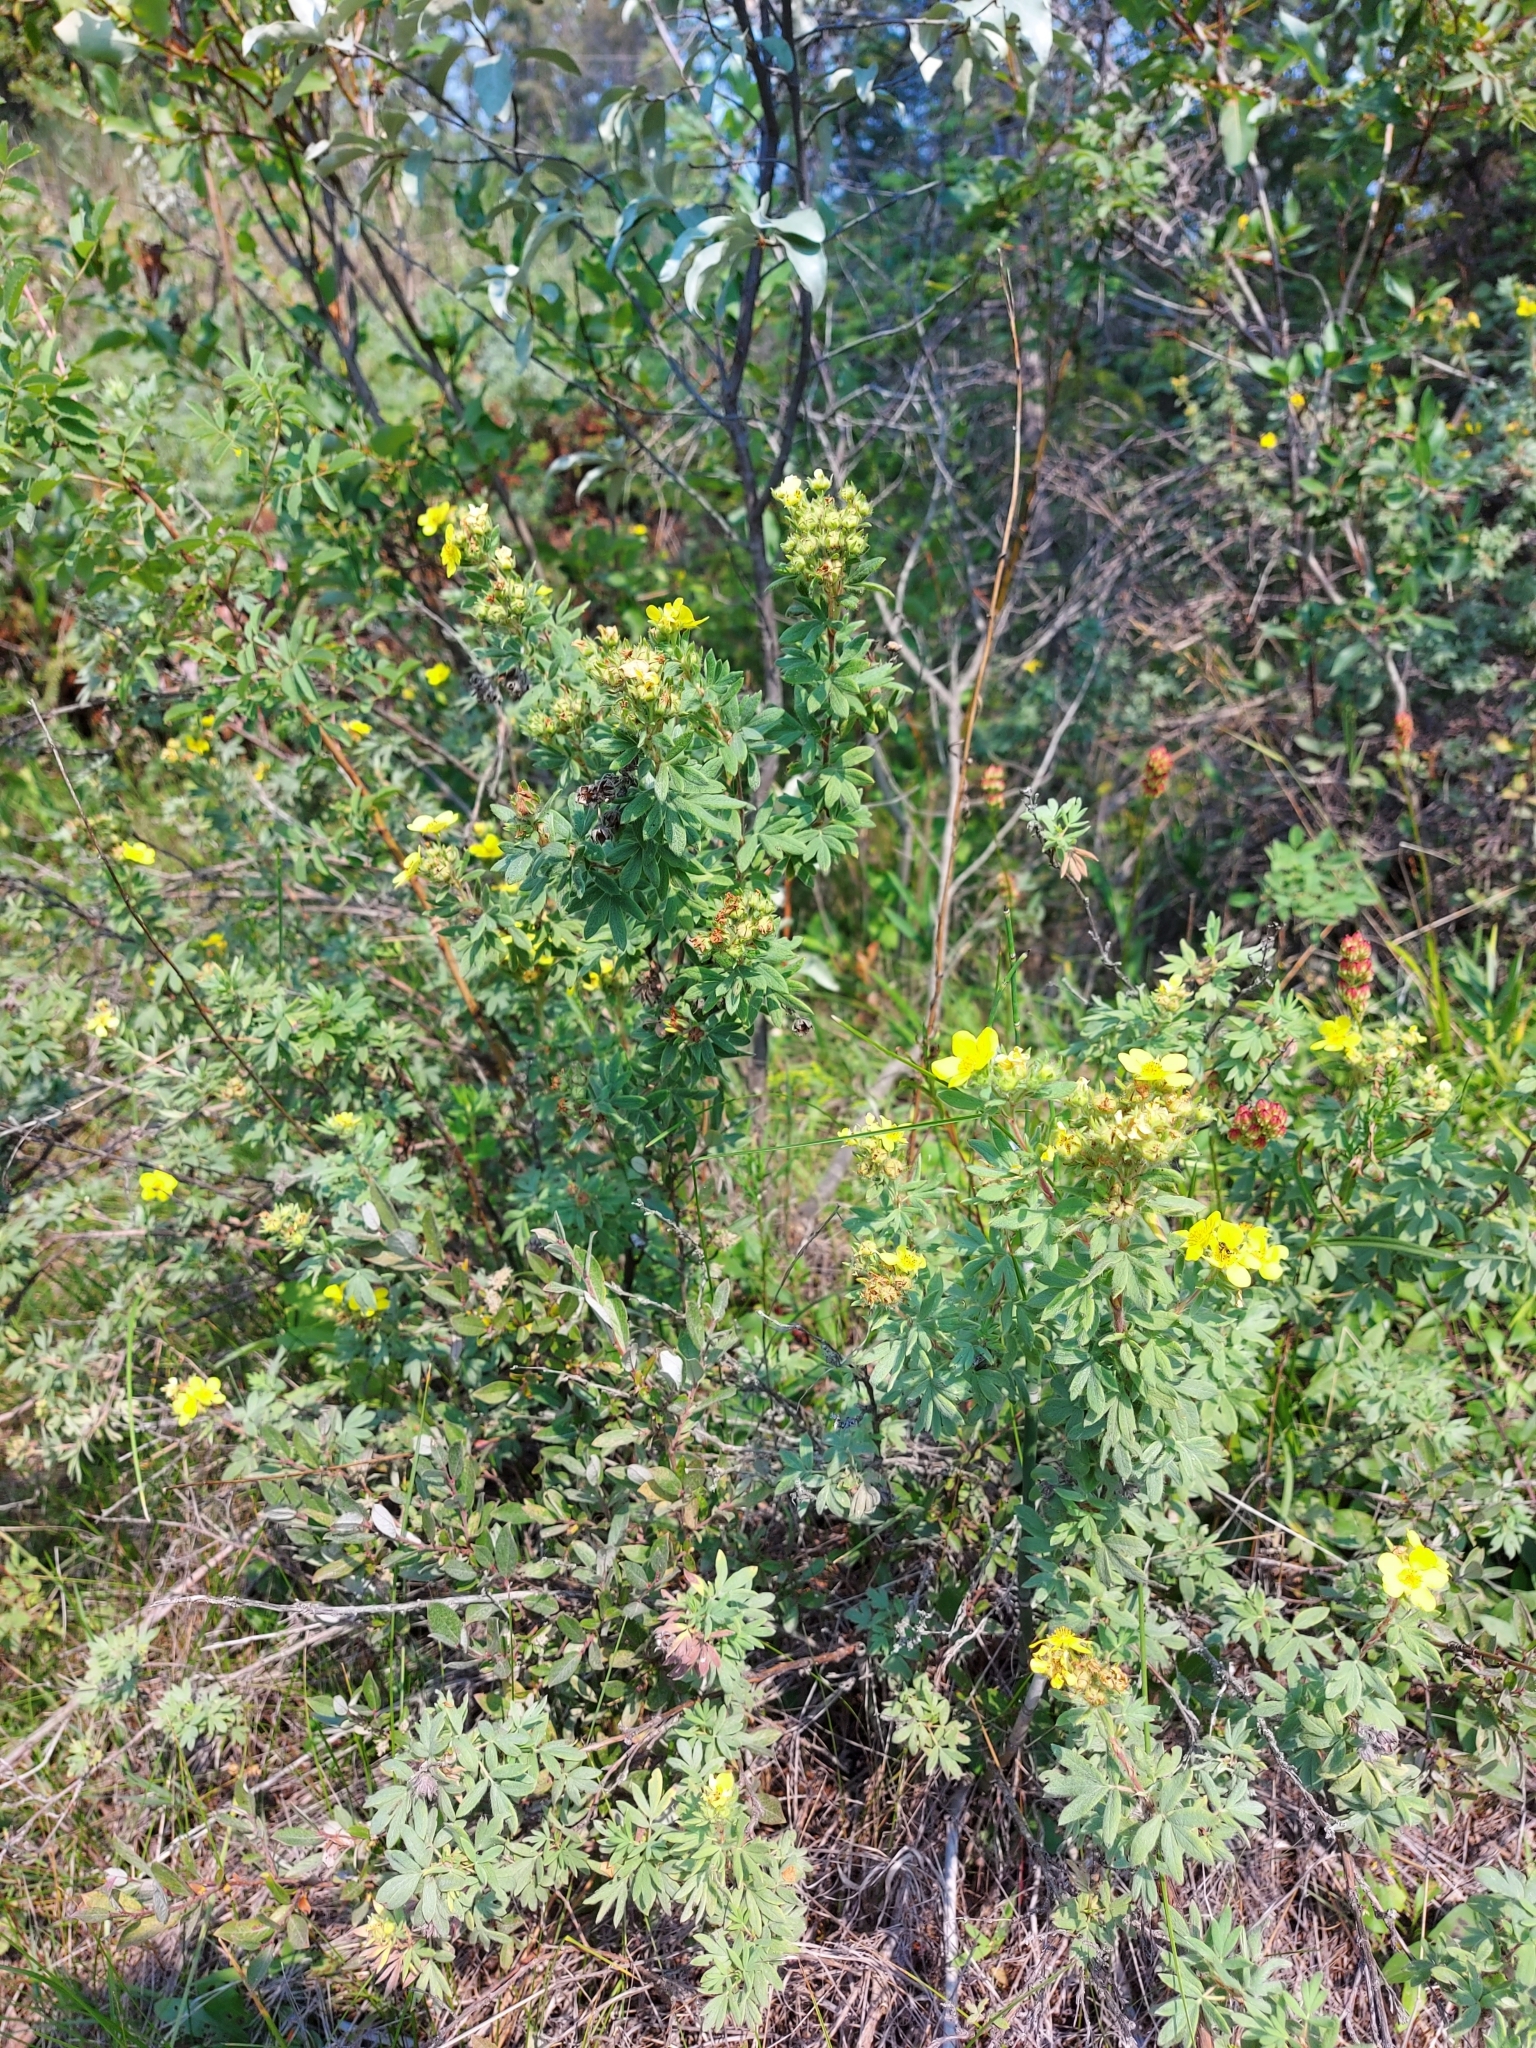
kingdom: Plantae
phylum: Tracheophyta
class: Magnoliopsida
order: Rosales
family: Rosaceae
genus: Dasiphora
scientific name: Dasiphora fruticosa
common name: Shrubby cinquefoil
